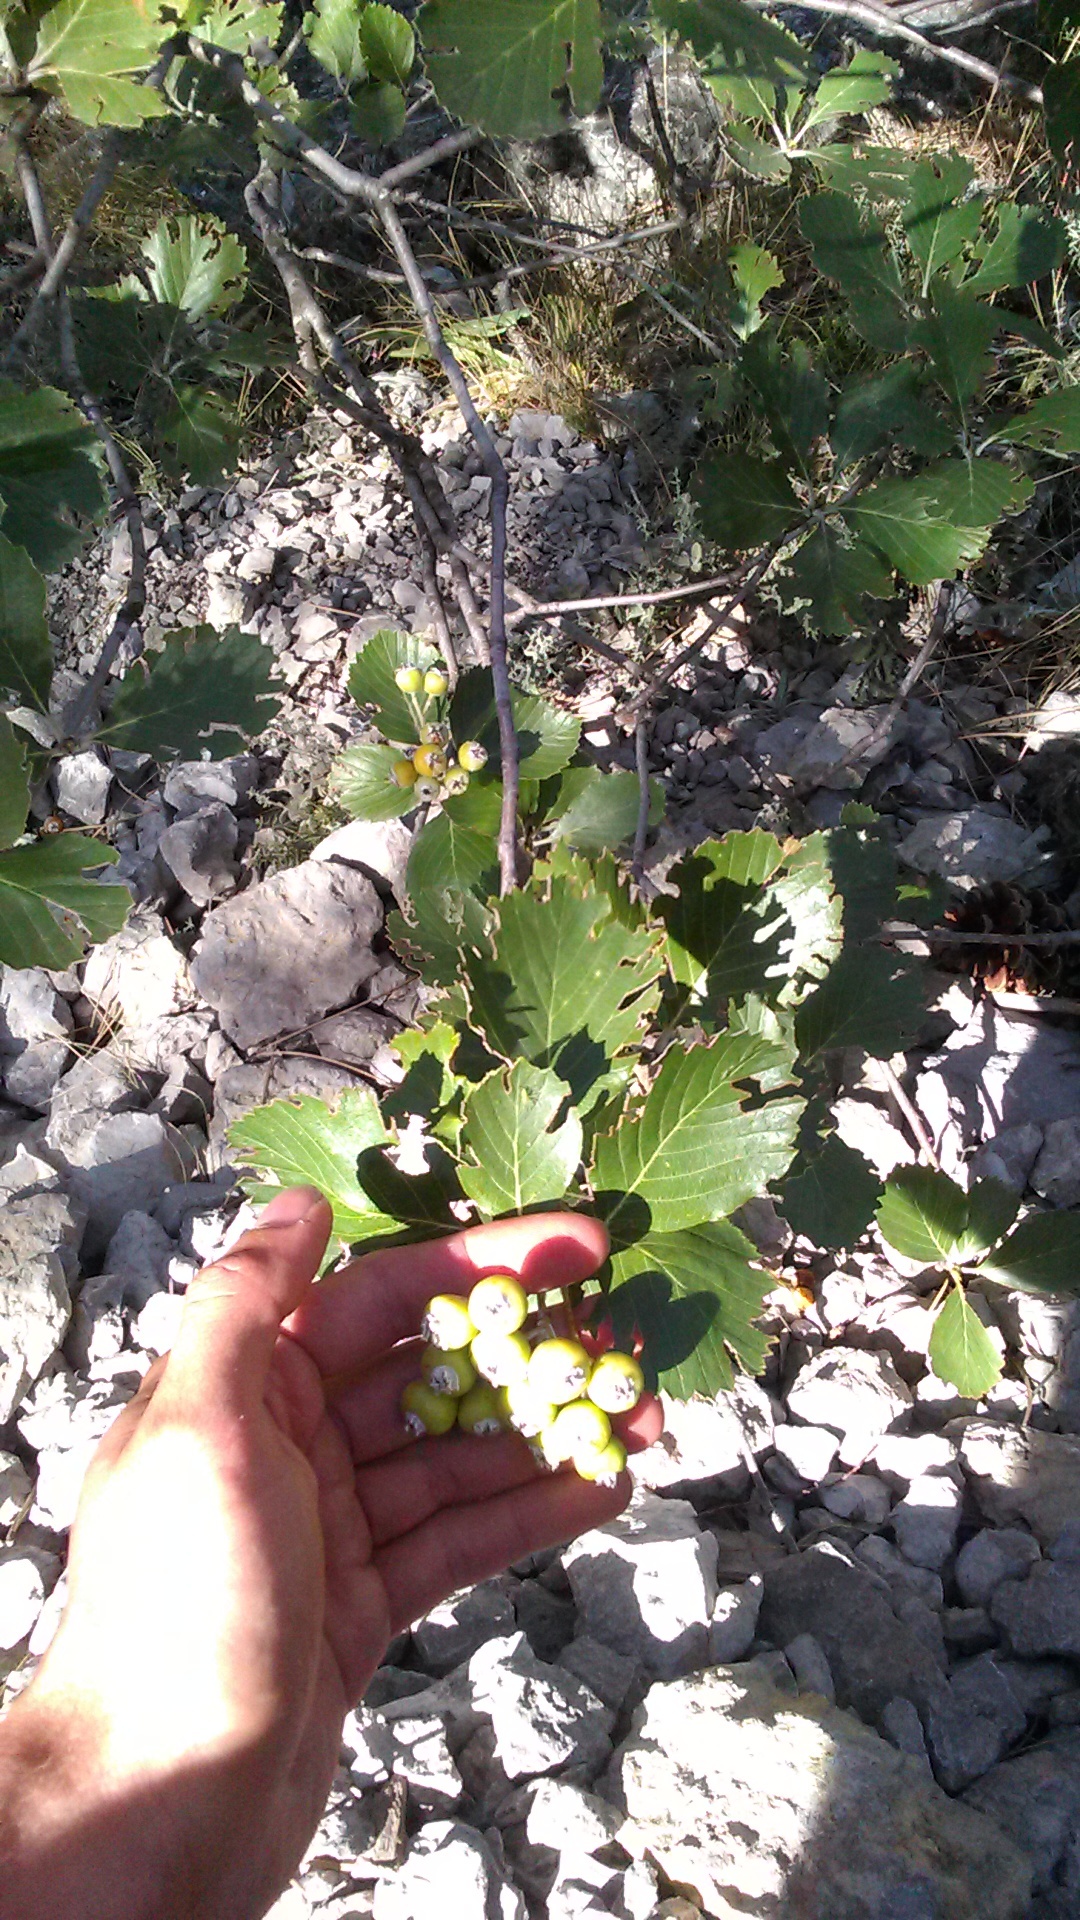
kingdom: Plantae
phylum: Tracheophyta
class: Magnoliopsida
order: Rosales
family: Rosaceae
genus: Aria
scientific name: Aria umbellata
